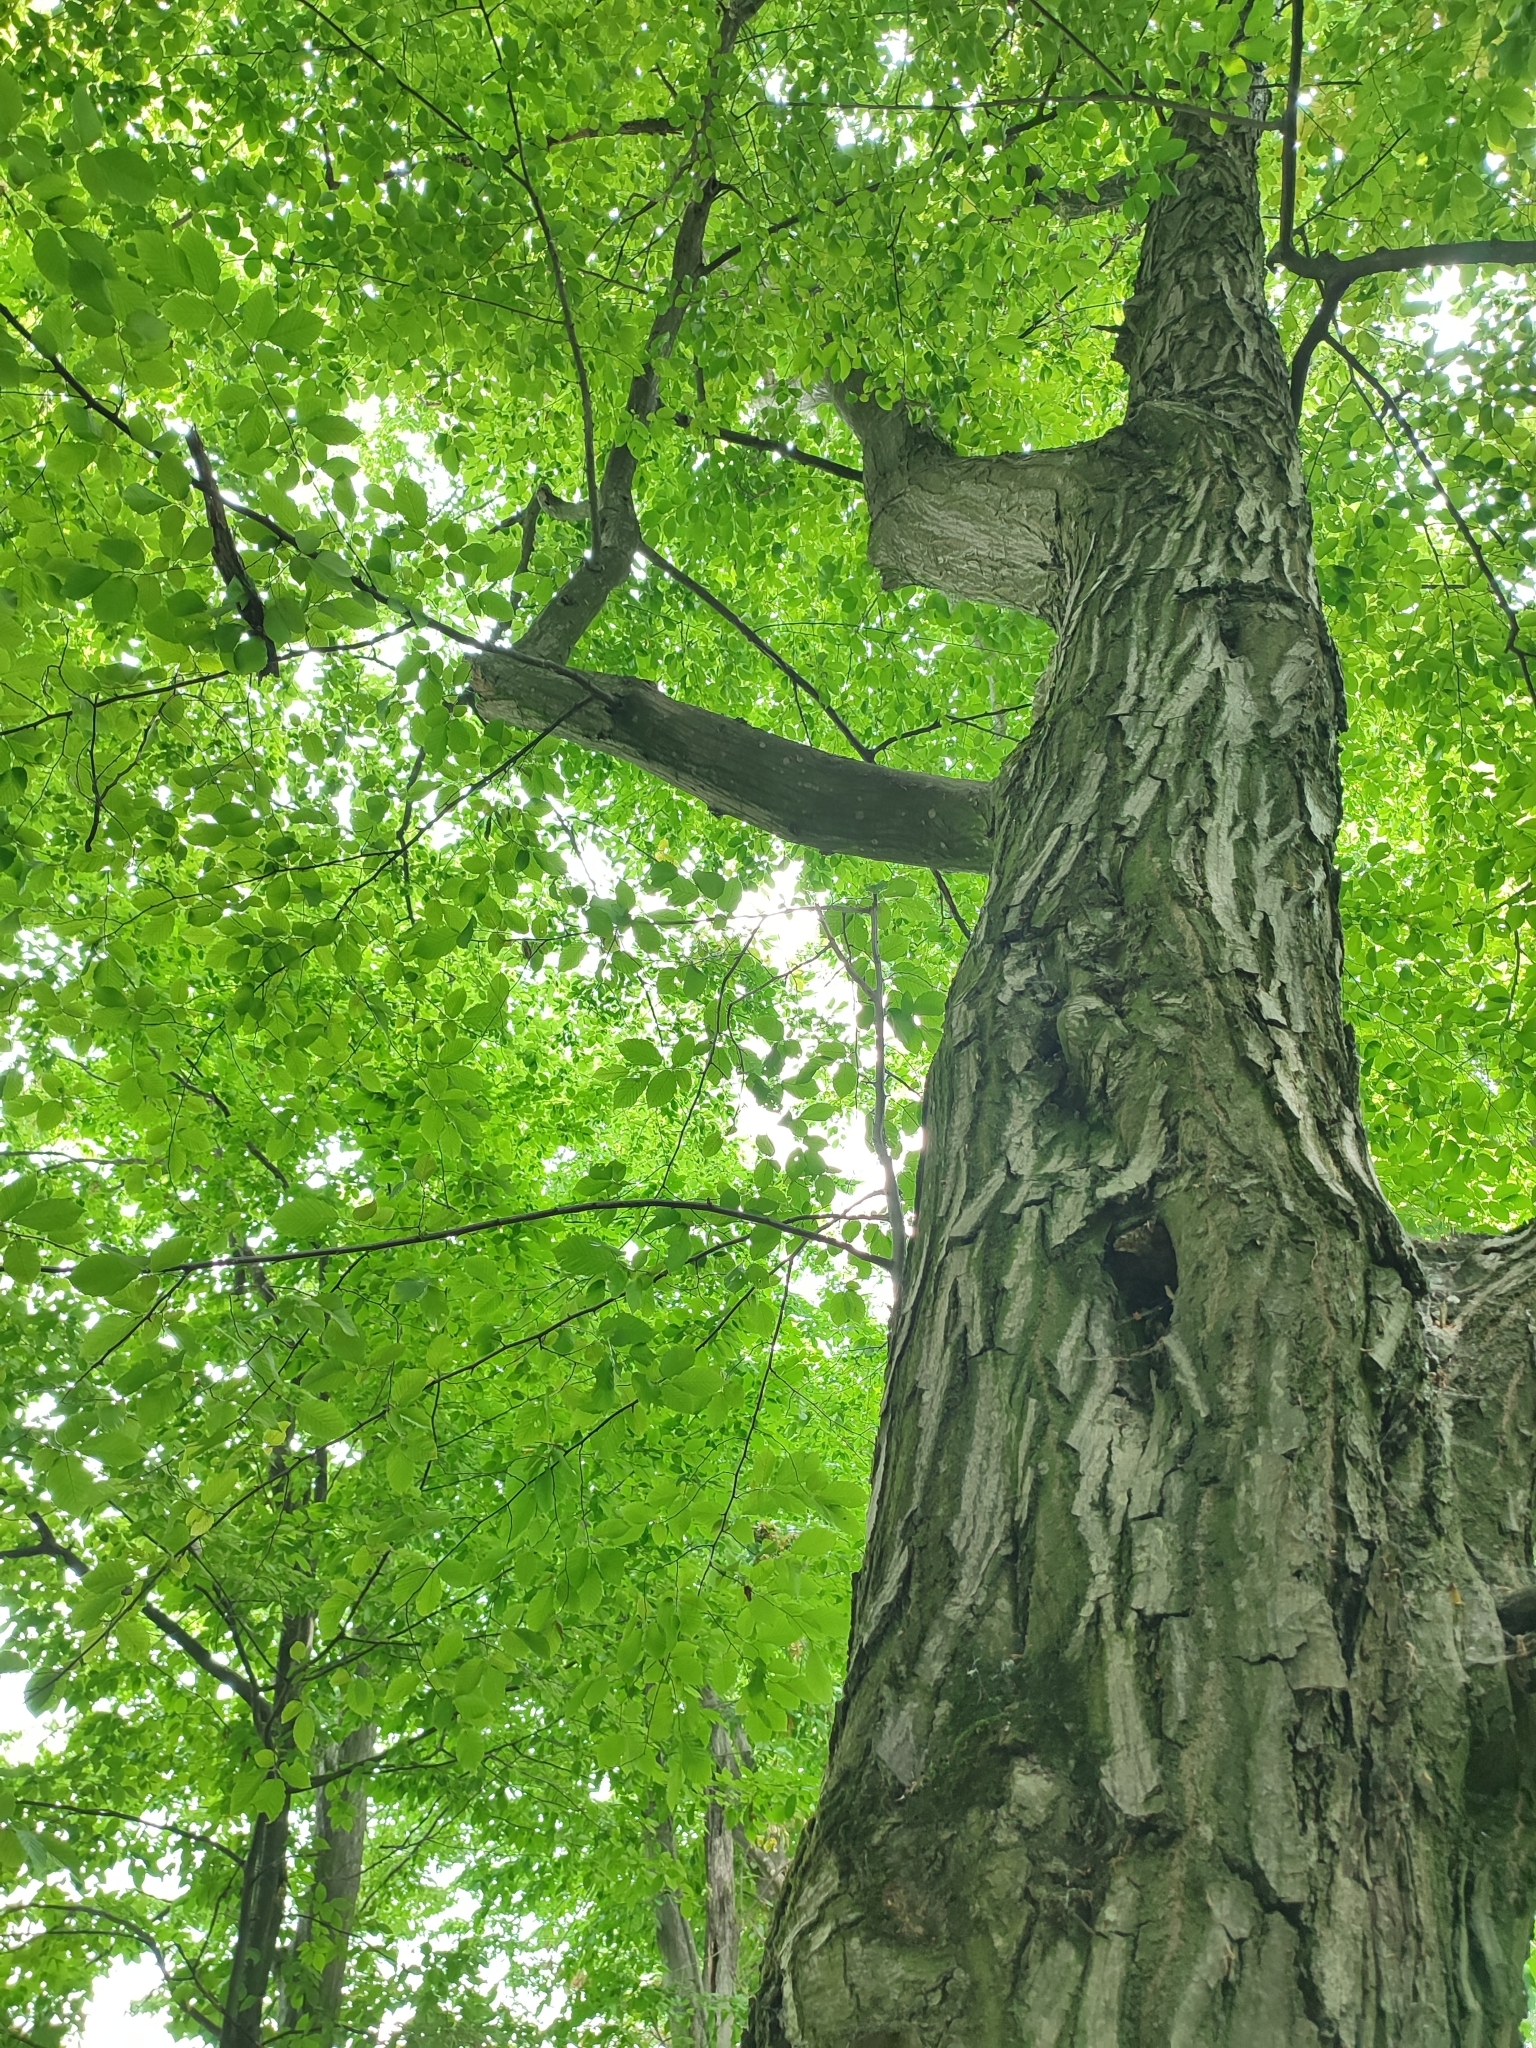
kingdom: Plantae
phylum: Tracheophyta
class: Magnoliopsida
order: Fagales
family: Betulaceae
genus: Carpinus
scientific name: Carpinus betulus
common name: Hornbeam
